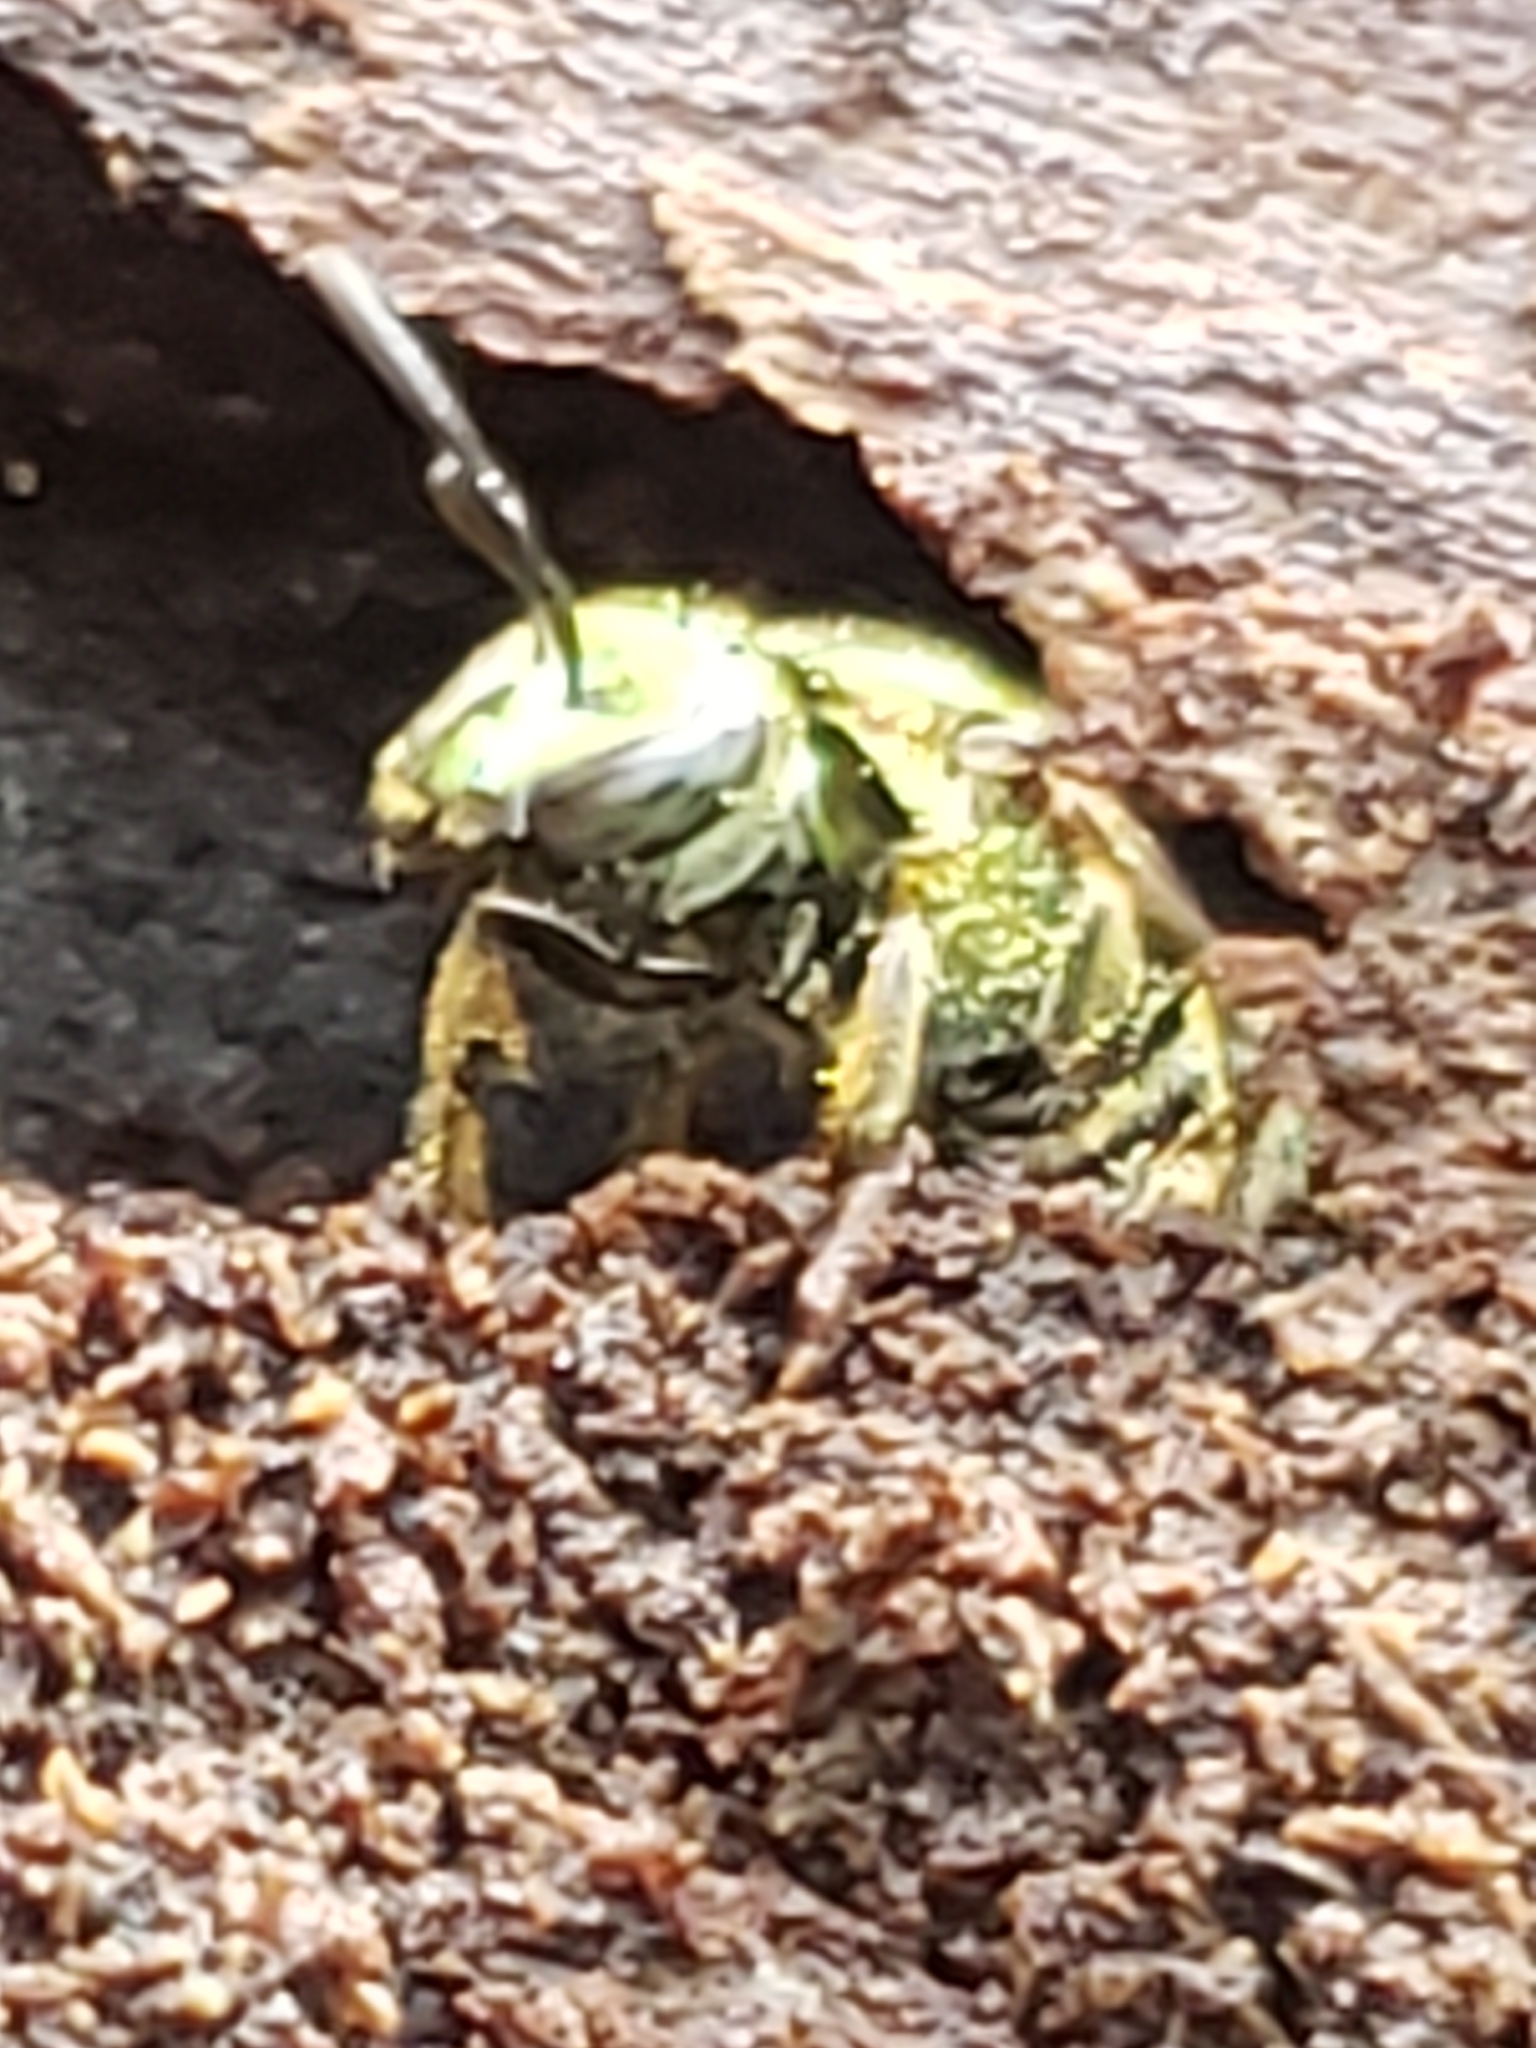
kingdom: Animalia
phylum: Arthropoda
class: Insecta
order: Hymenoptera
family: Halictidae
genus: Augochlora
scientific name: Augochlora pura
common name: Pure green sweat bee
